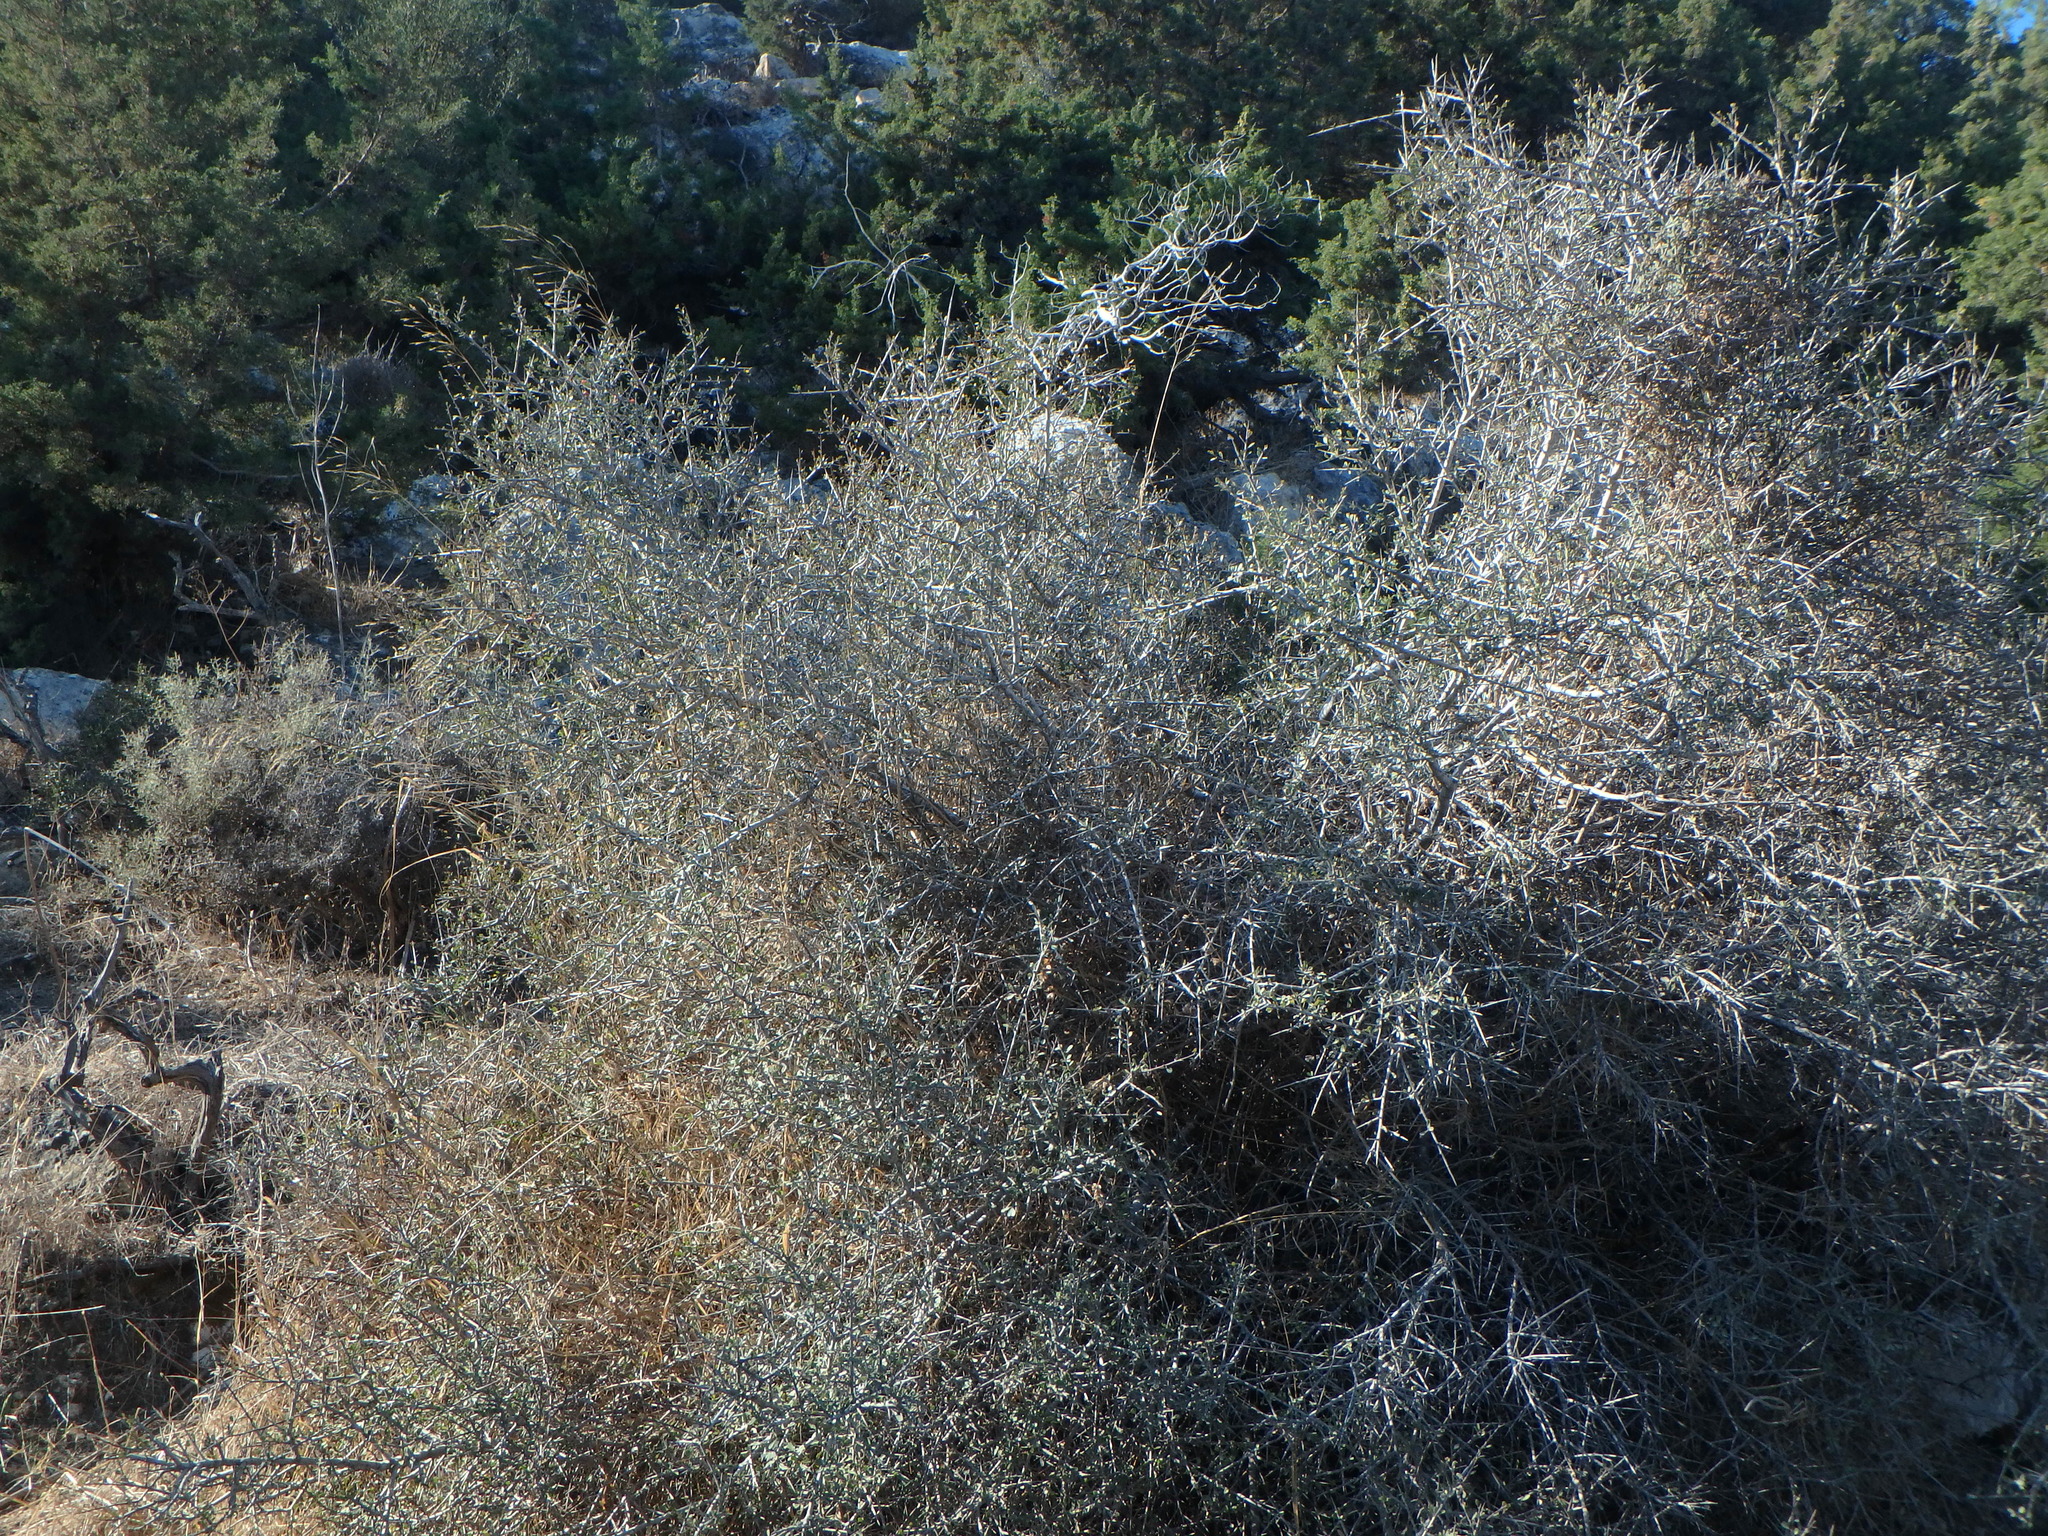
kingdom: Plantae
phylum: Tracheophyta
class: Magnoliopsida
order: Rosales
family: Rhamnaceae
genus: Rhamnus
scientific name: Rhamnus lycioides
